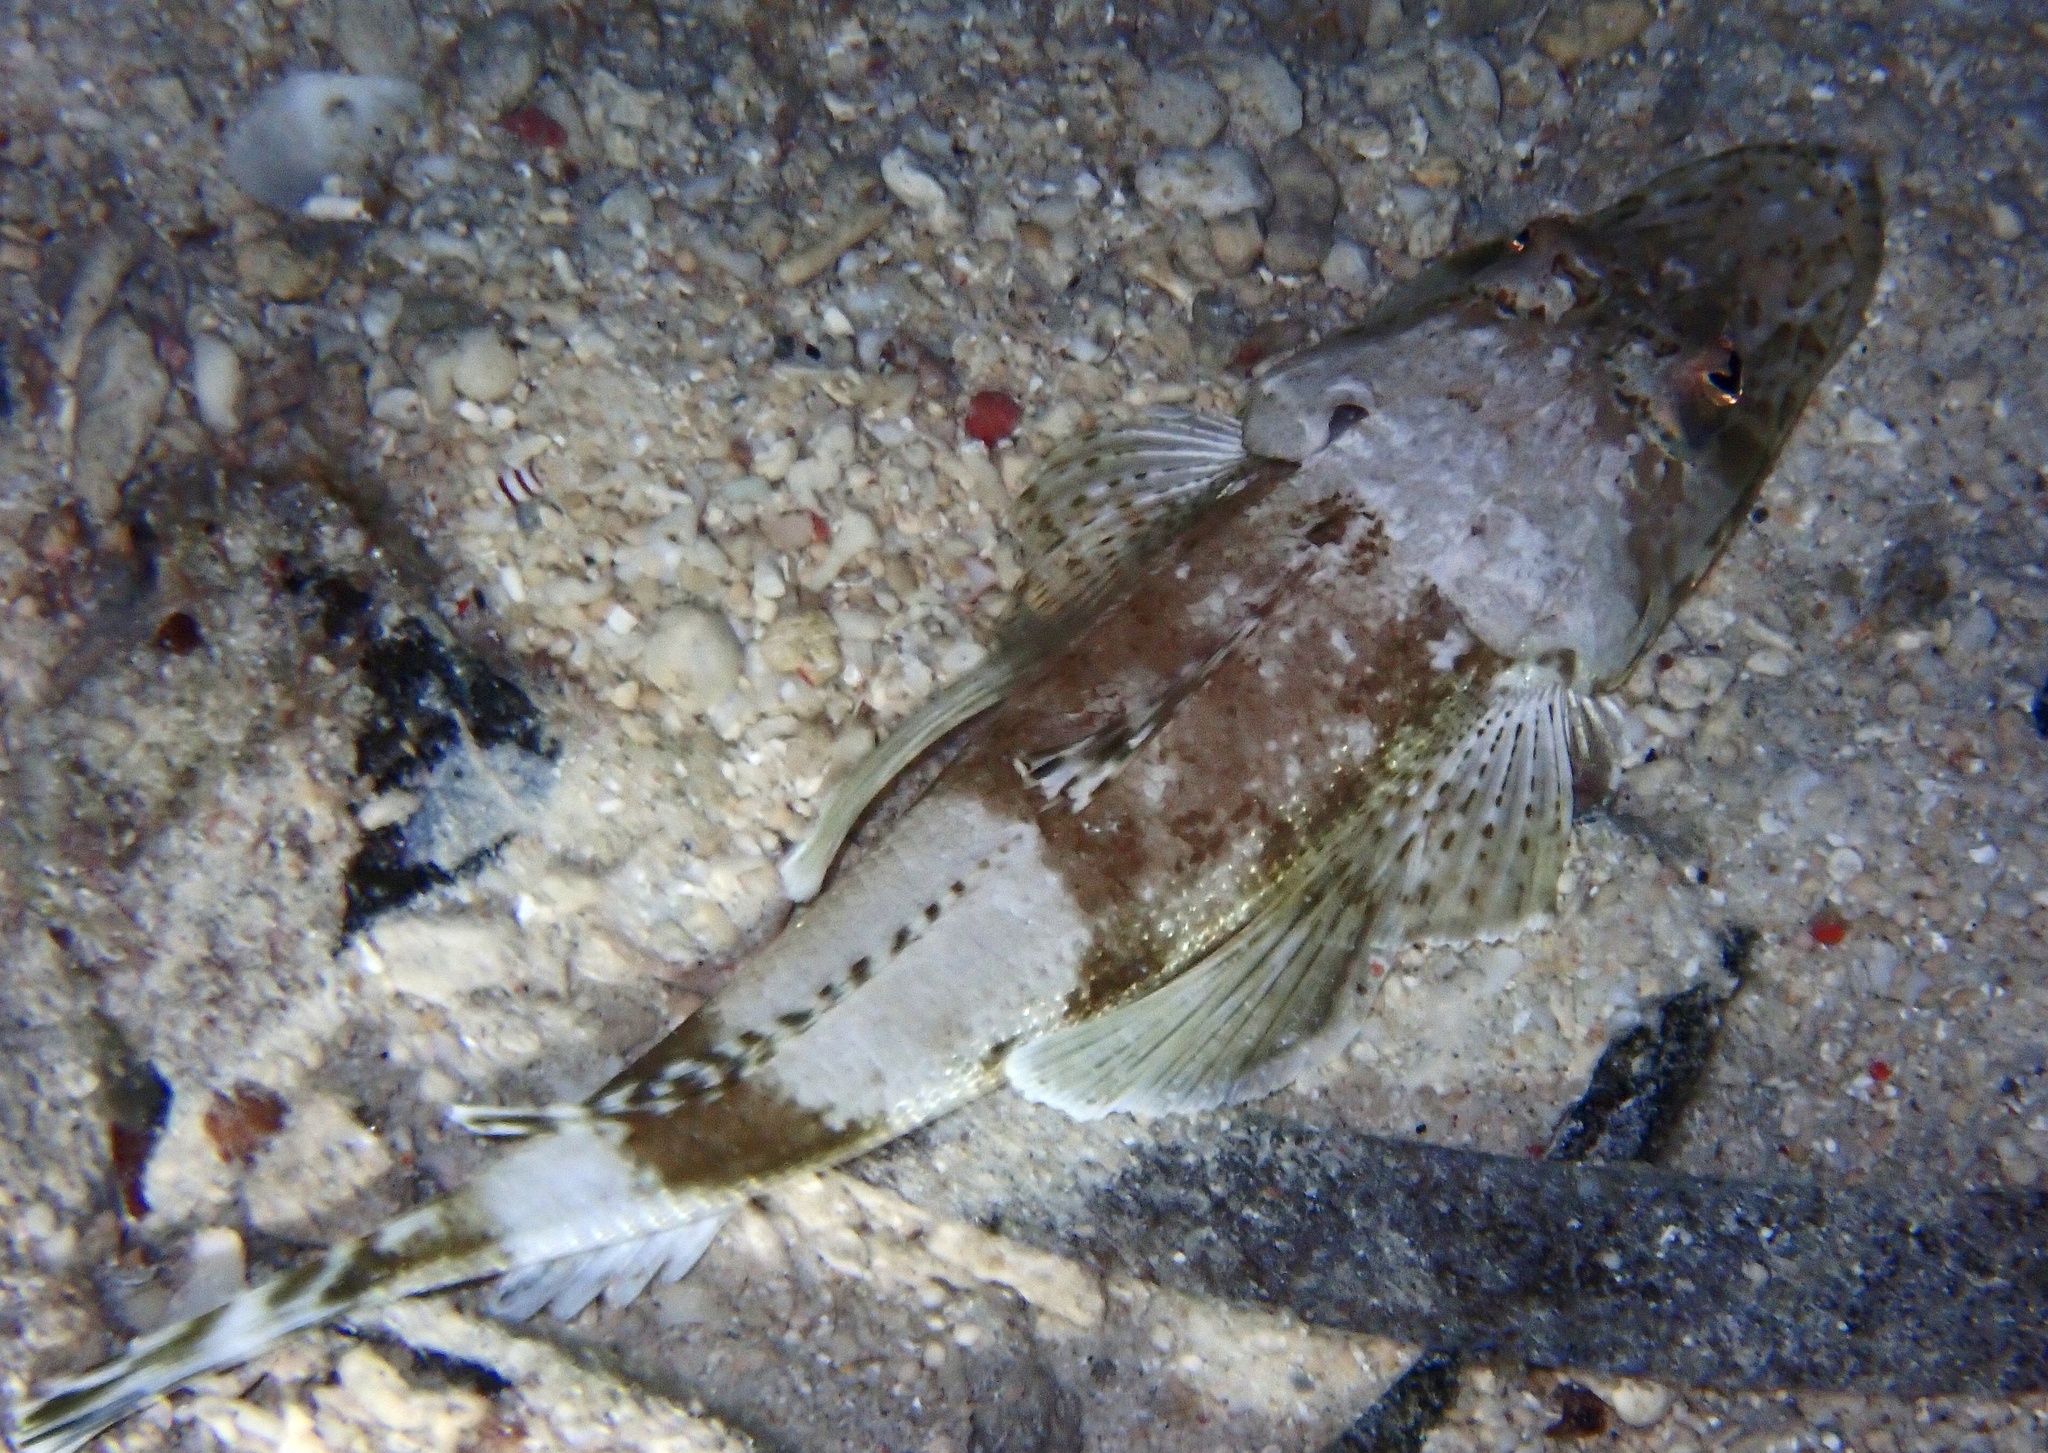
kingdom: Animalia
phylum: Chordata
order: Scorpaeniformes
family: Platycephalidae
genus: Onigocia
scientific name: Onigocia spinosa
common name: Midget flathead
